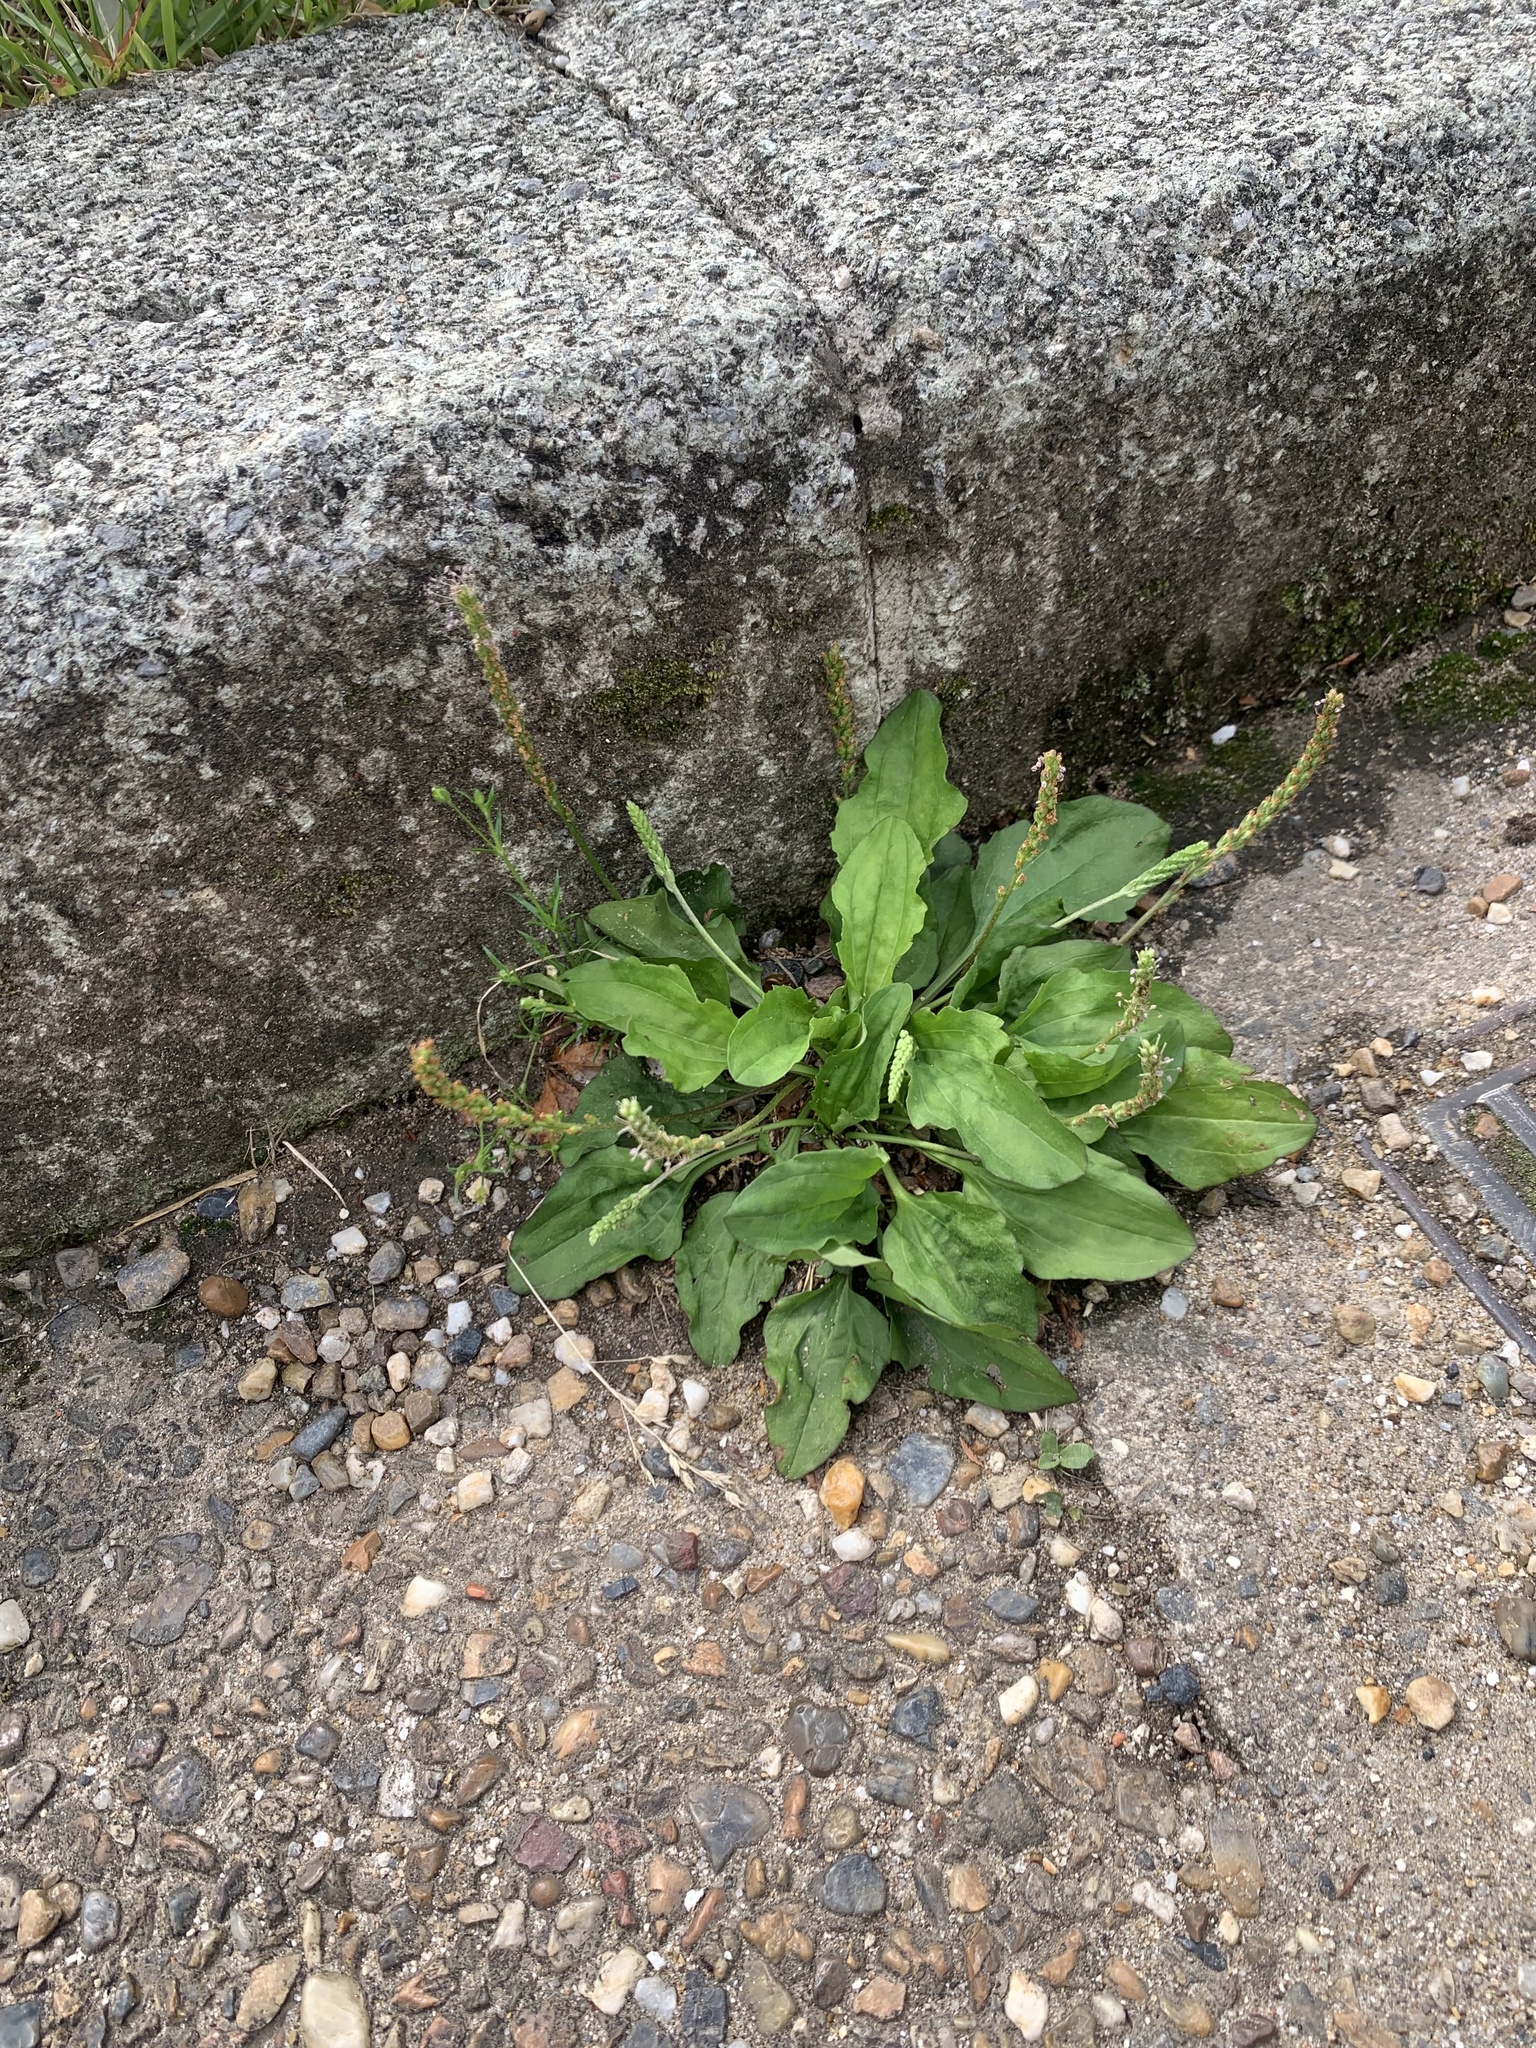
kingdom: Plantae
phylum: Tracheophyta
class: Magnoliopsida
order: Lamiales
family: Plantaginaceae
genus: Plantago
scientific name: Plantago asiatica
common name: Psyllium
